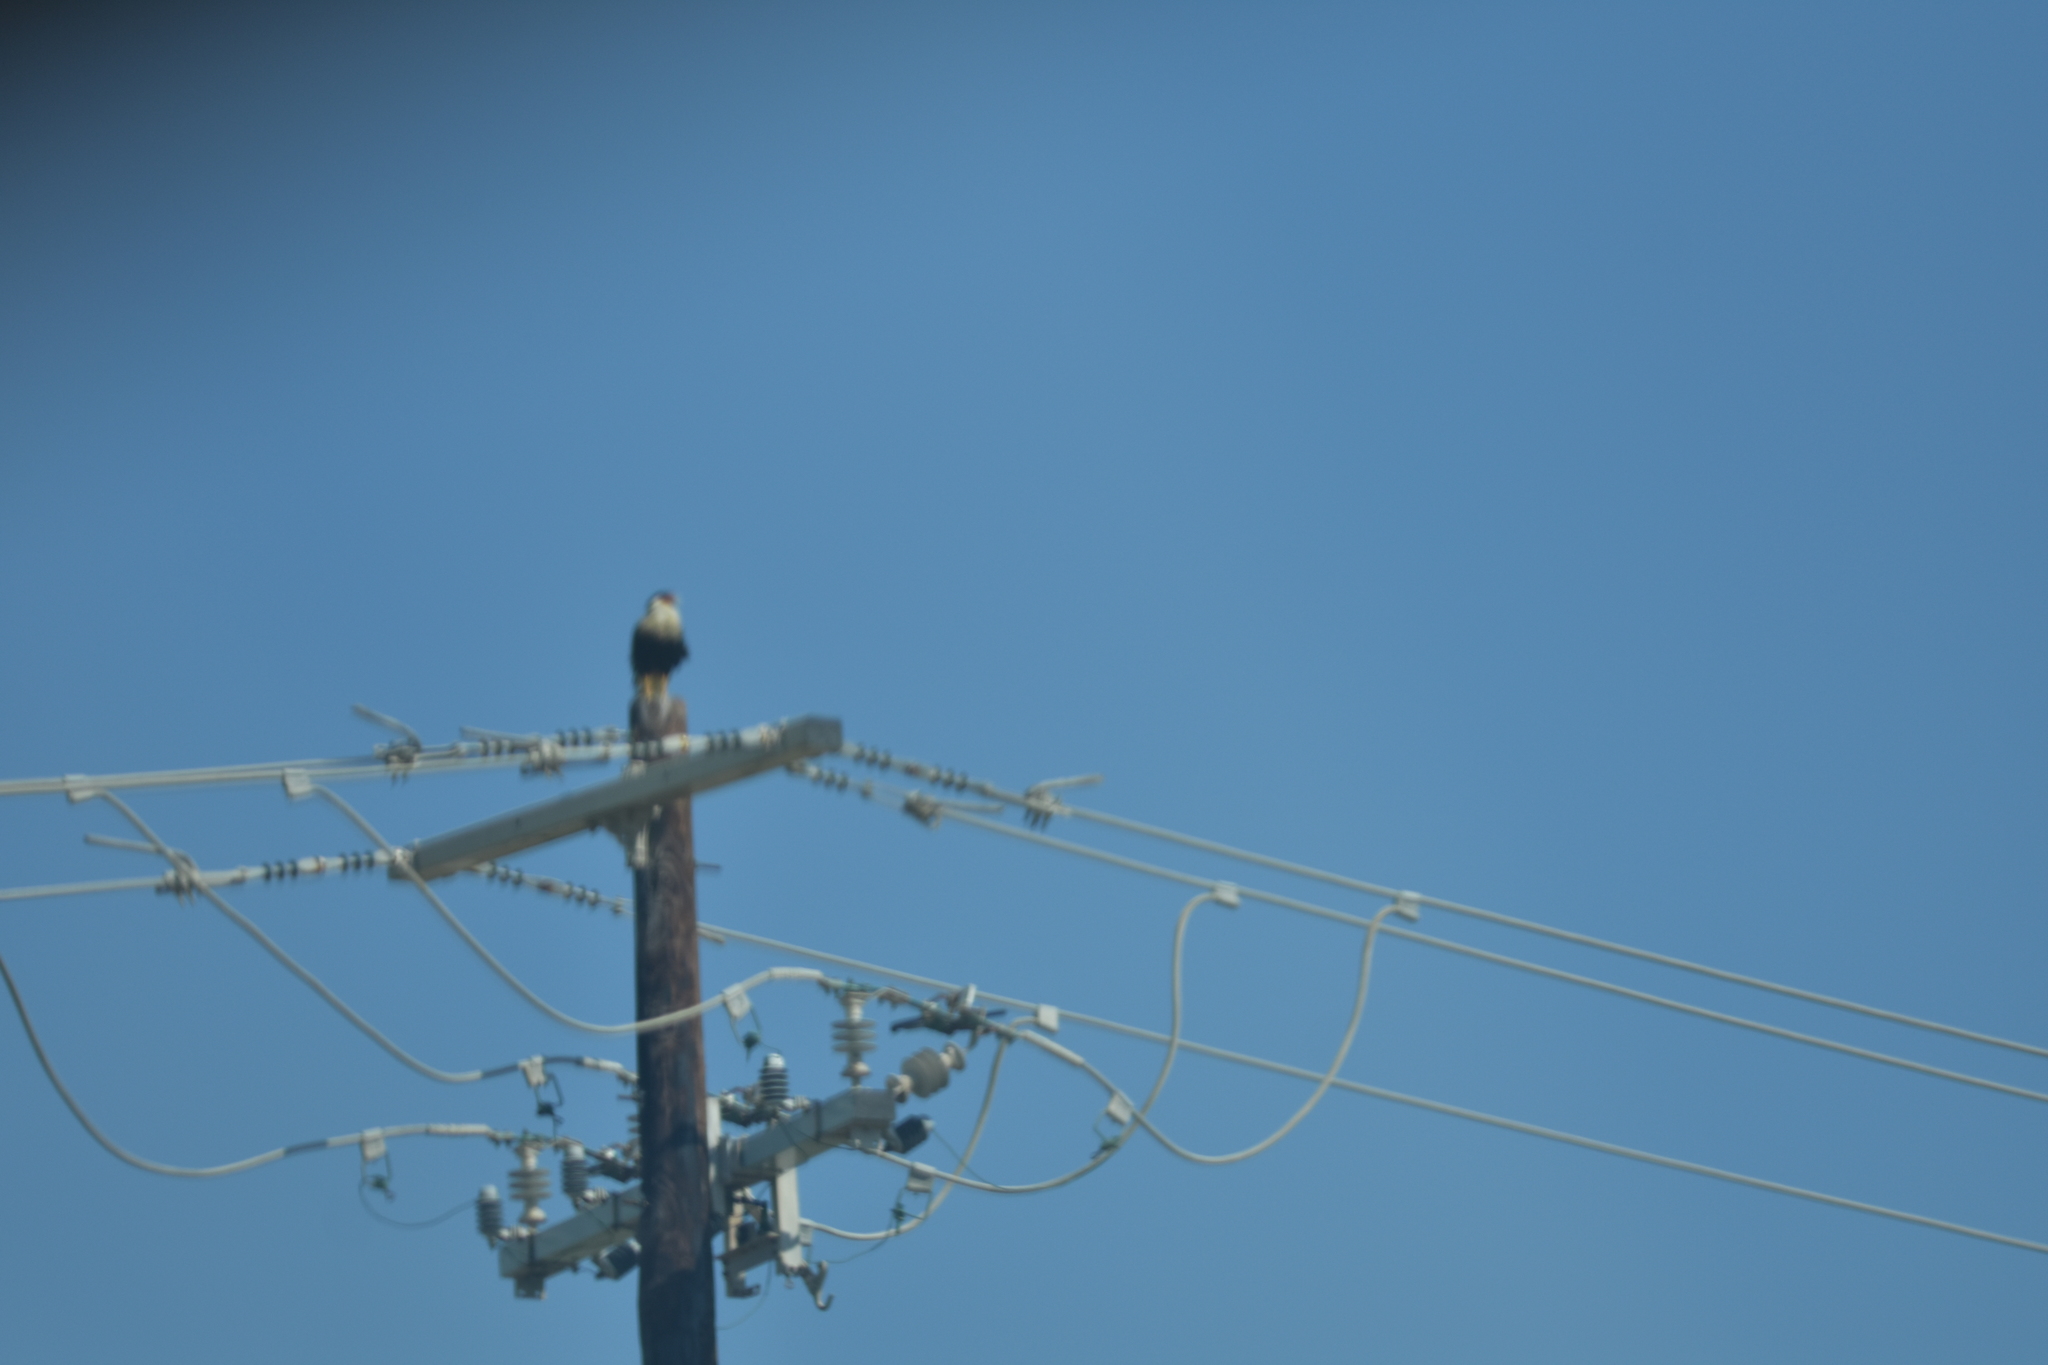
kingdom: Animalia
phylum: Chordata
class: Aves
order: Falconiformes
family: Falconidae
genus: Caracara
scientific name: Caracara plancus
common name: Southern caracara
